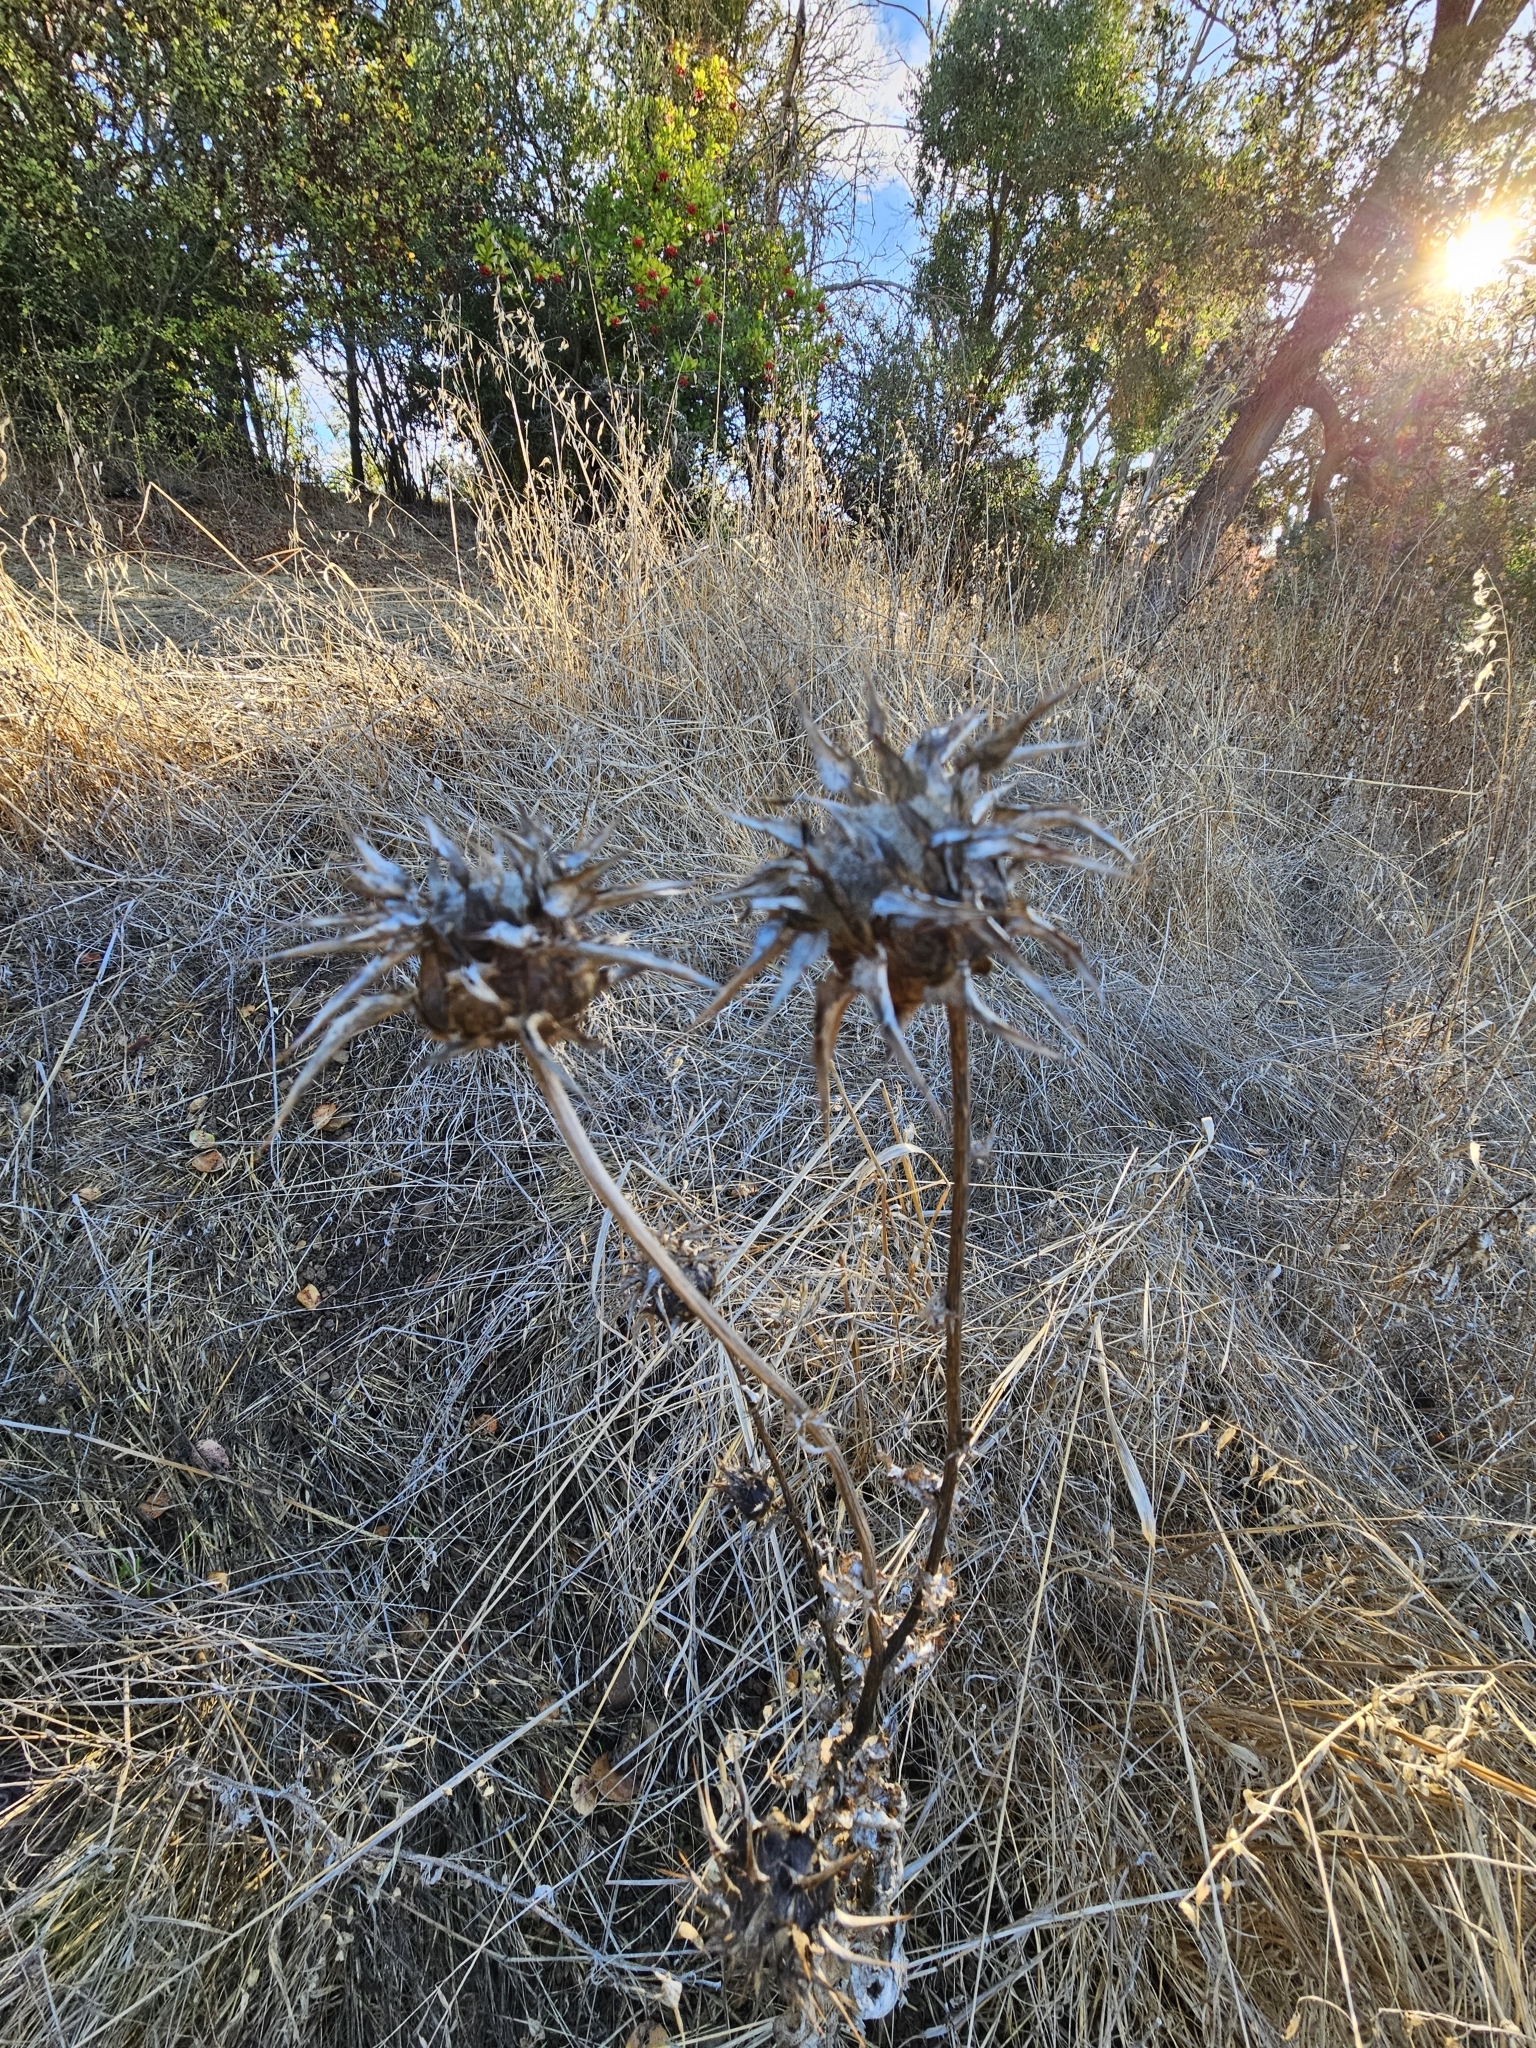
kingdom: Plantae
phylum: Tracheophyta
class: Magnoliopsida
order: Asterales
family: Asteraceae
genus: Silybum
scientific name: Silybum marianum
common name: Milk thistle
